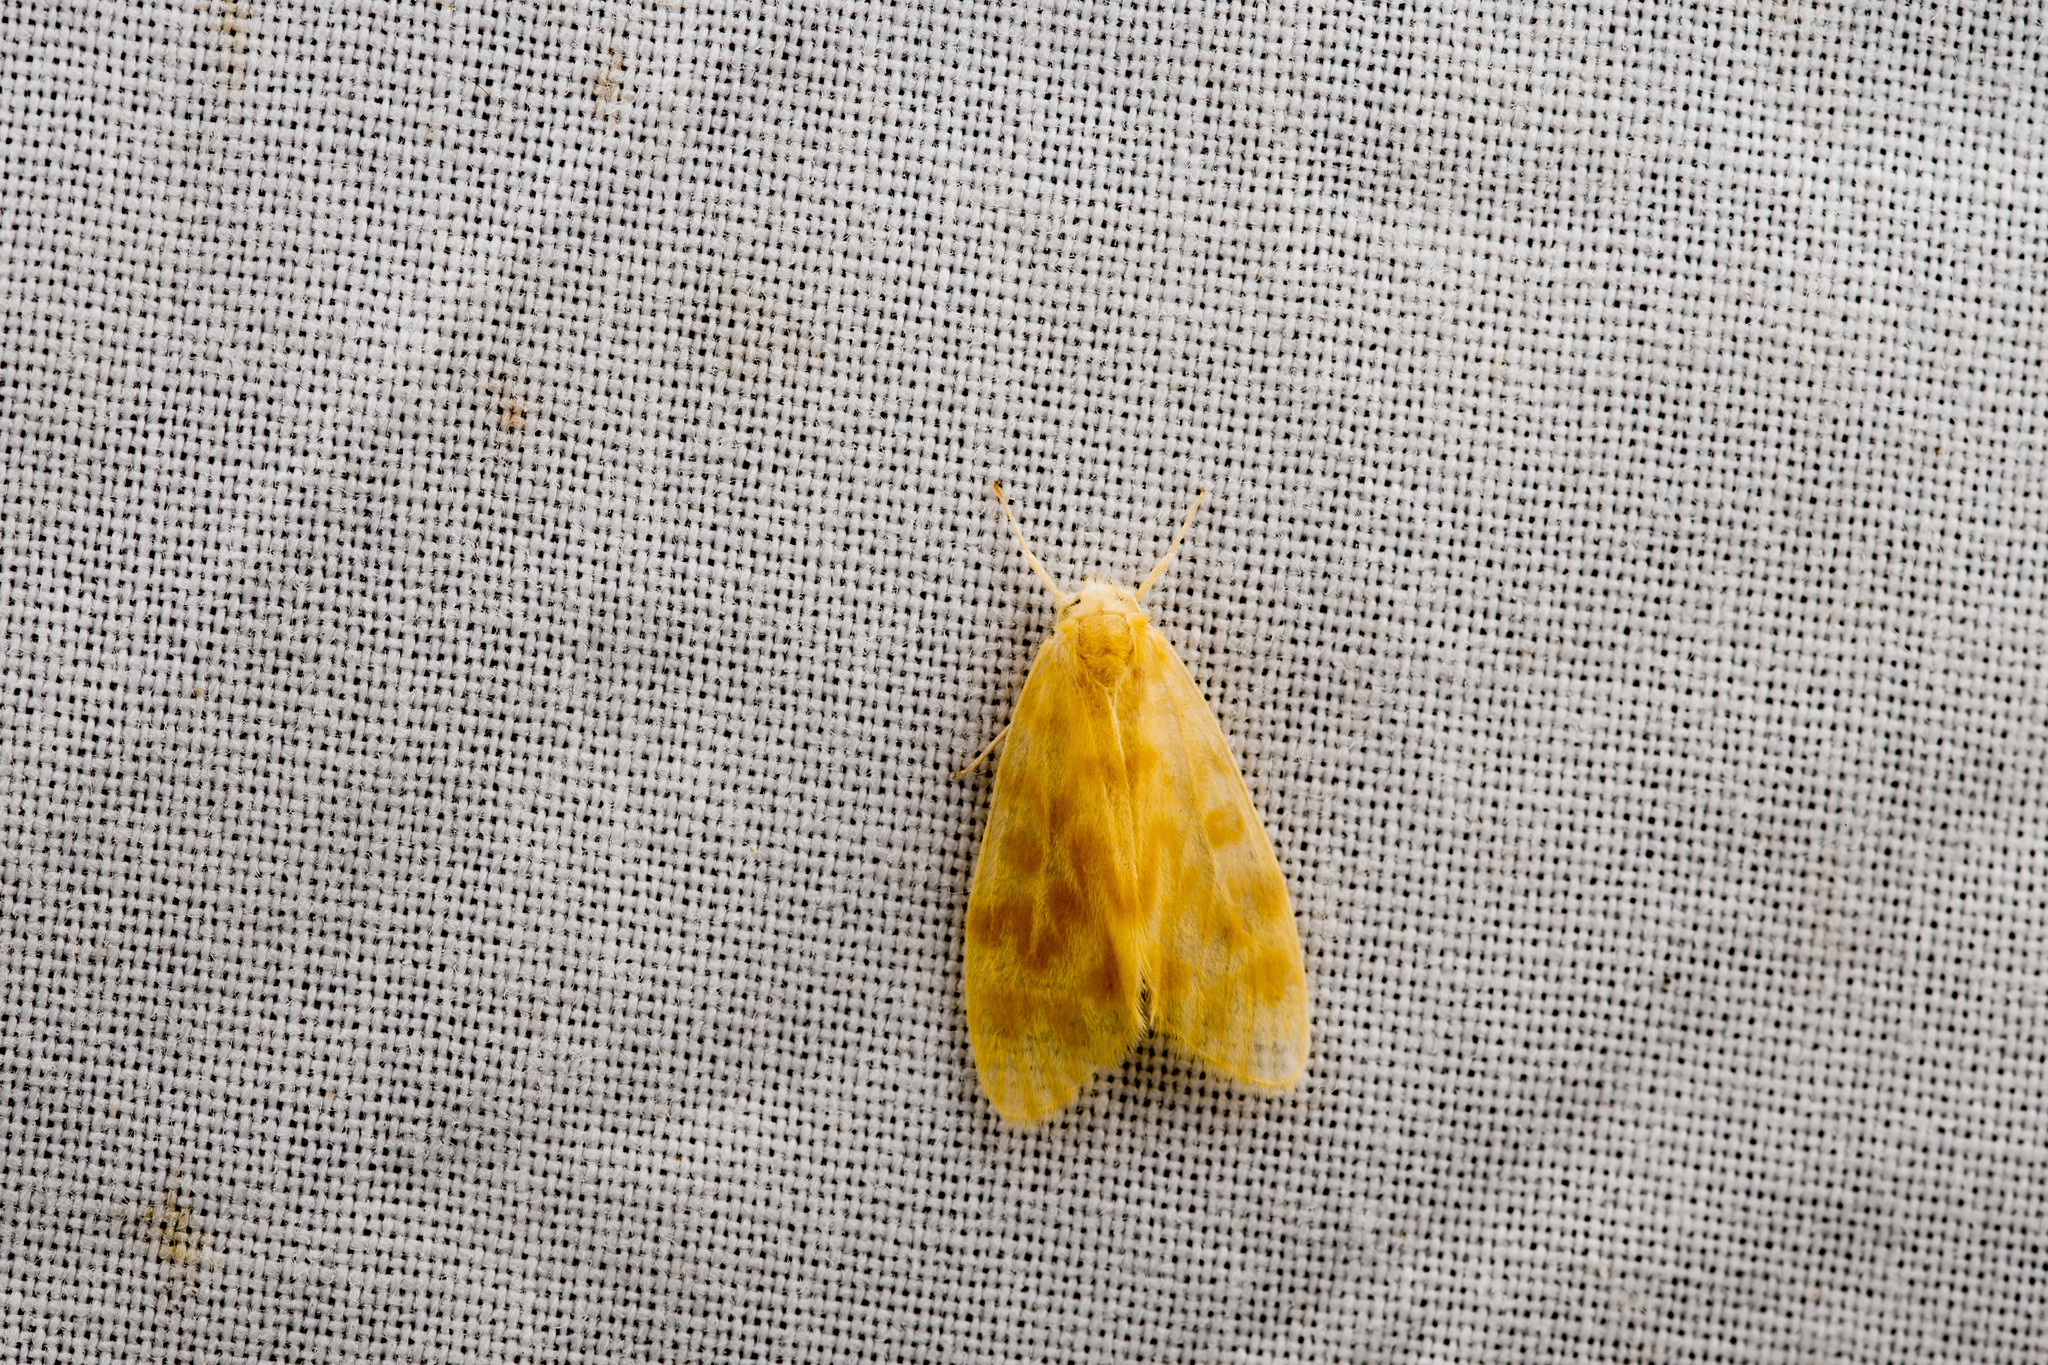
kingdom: Animalia
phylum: Arthropoda
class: Insecta
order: Lepidoptera
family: Erebidae
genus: Hemipsilia
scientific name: Hemipsilia coavestis
